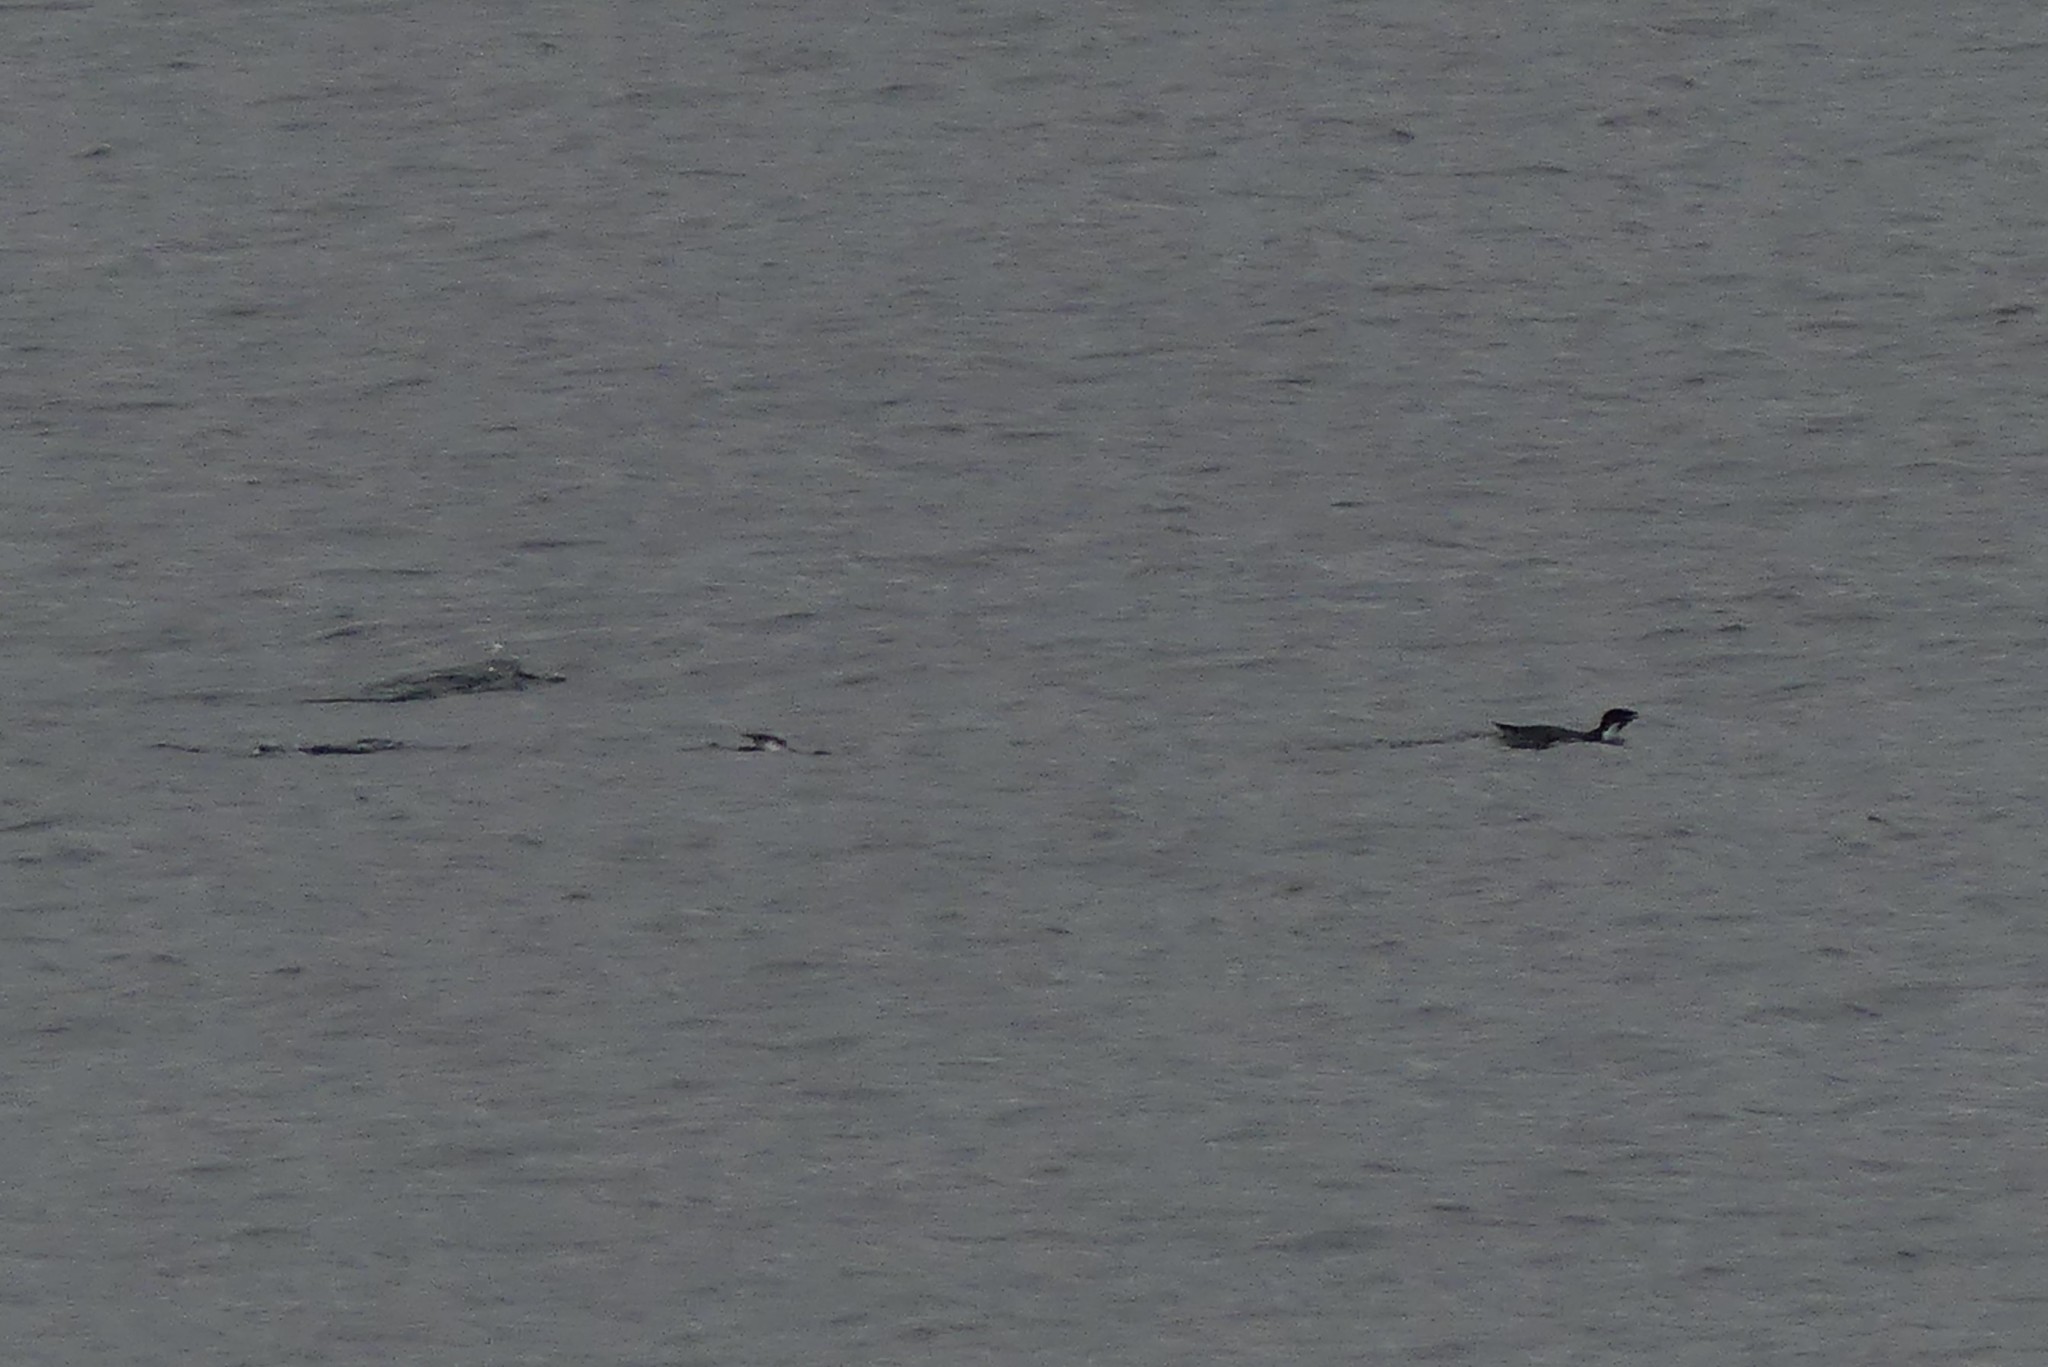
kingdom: Animalia
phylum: Chordata
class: Aves
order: Charadriiformes
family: Alcidae
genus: Synthliboramphus
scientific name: Synthliboramphus antiquus
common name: Ancient murrelet
